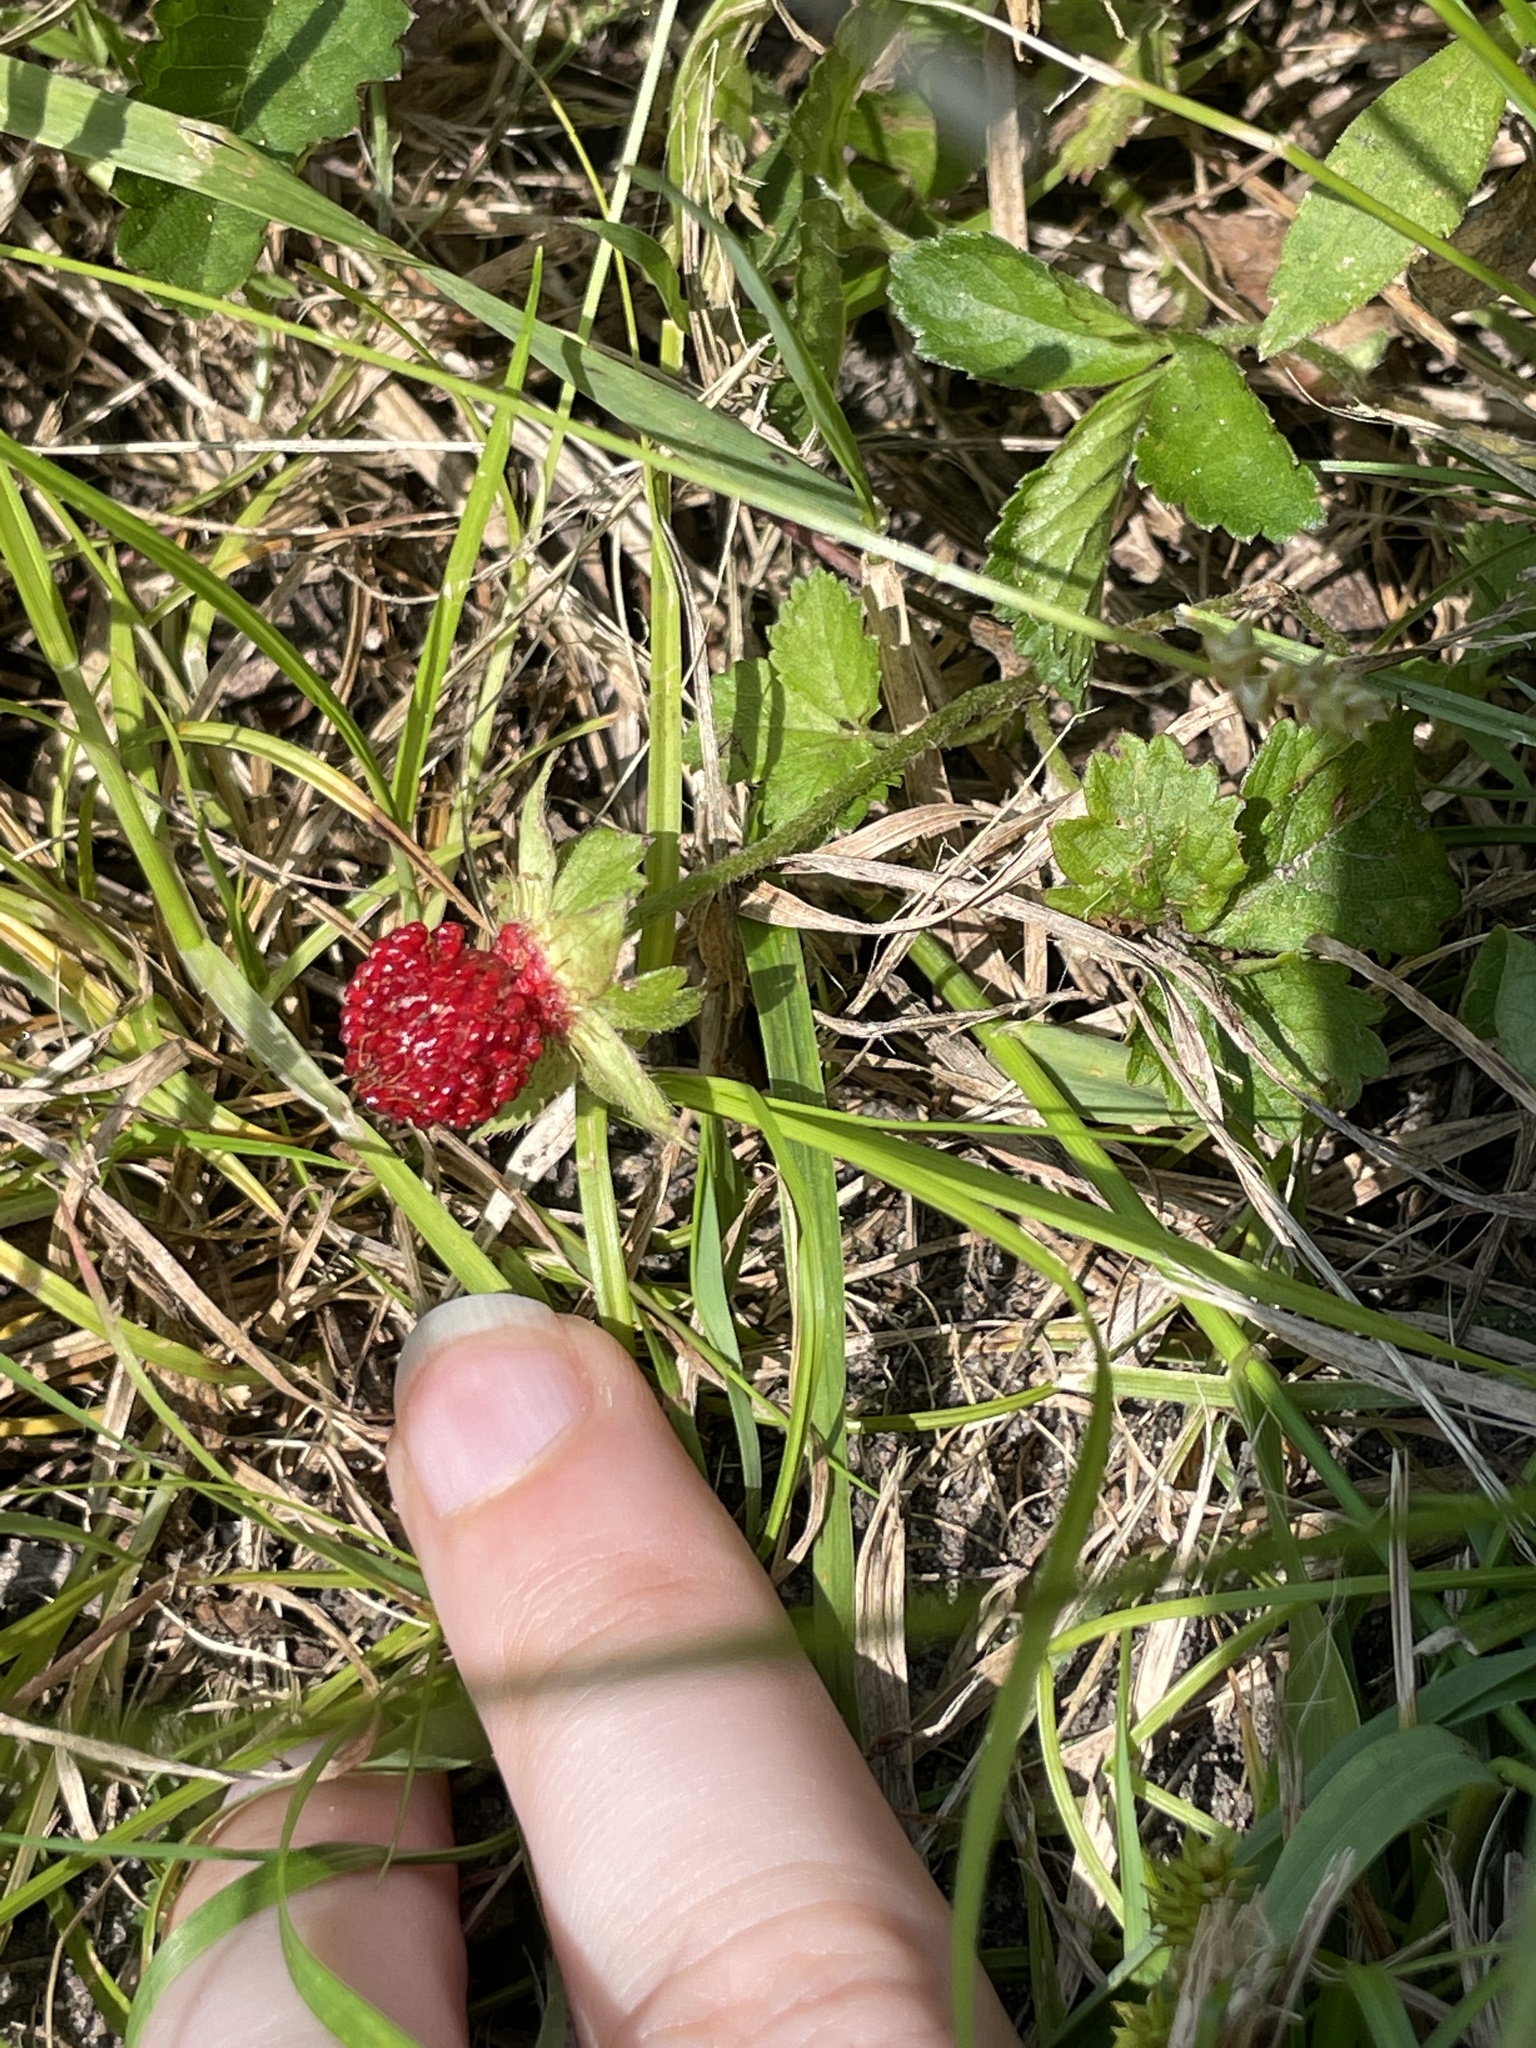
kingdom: Plantae
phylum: Tracheophyta
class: Magnoliopsida
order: Rosales
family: Rosaceae
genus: Potentilla
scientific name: Potentilla indica
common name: Yellow-flowered strawberry
